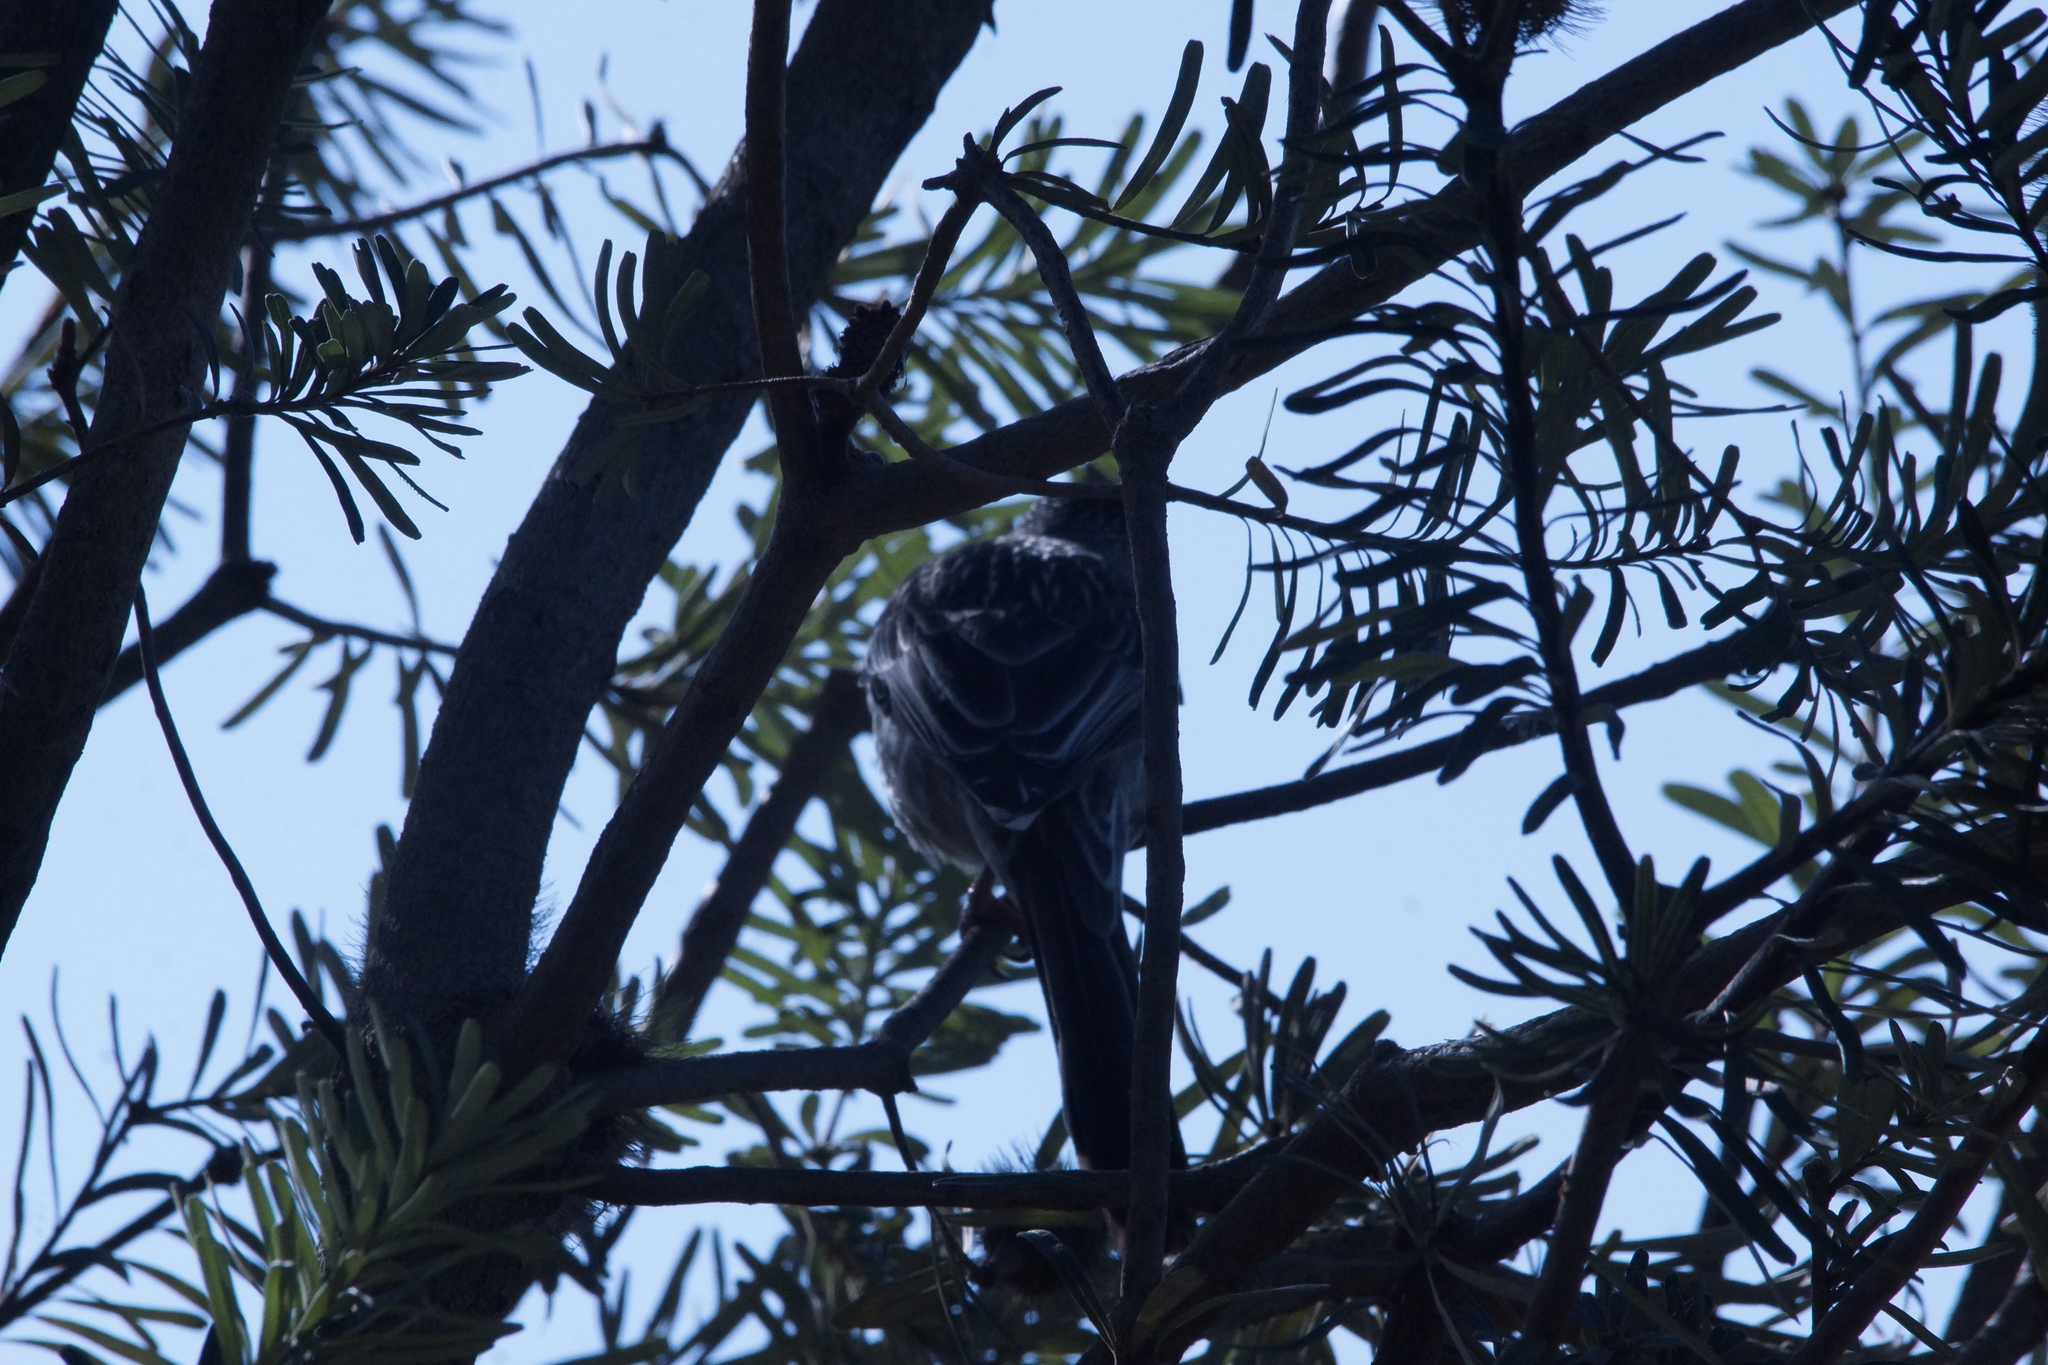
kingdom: Animalia
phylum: Chordata
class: Aves
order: Passeriformes
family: Meliphagidae
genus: Anthochaera
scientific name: Anthochaera carunculata
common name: Red wattlebird
